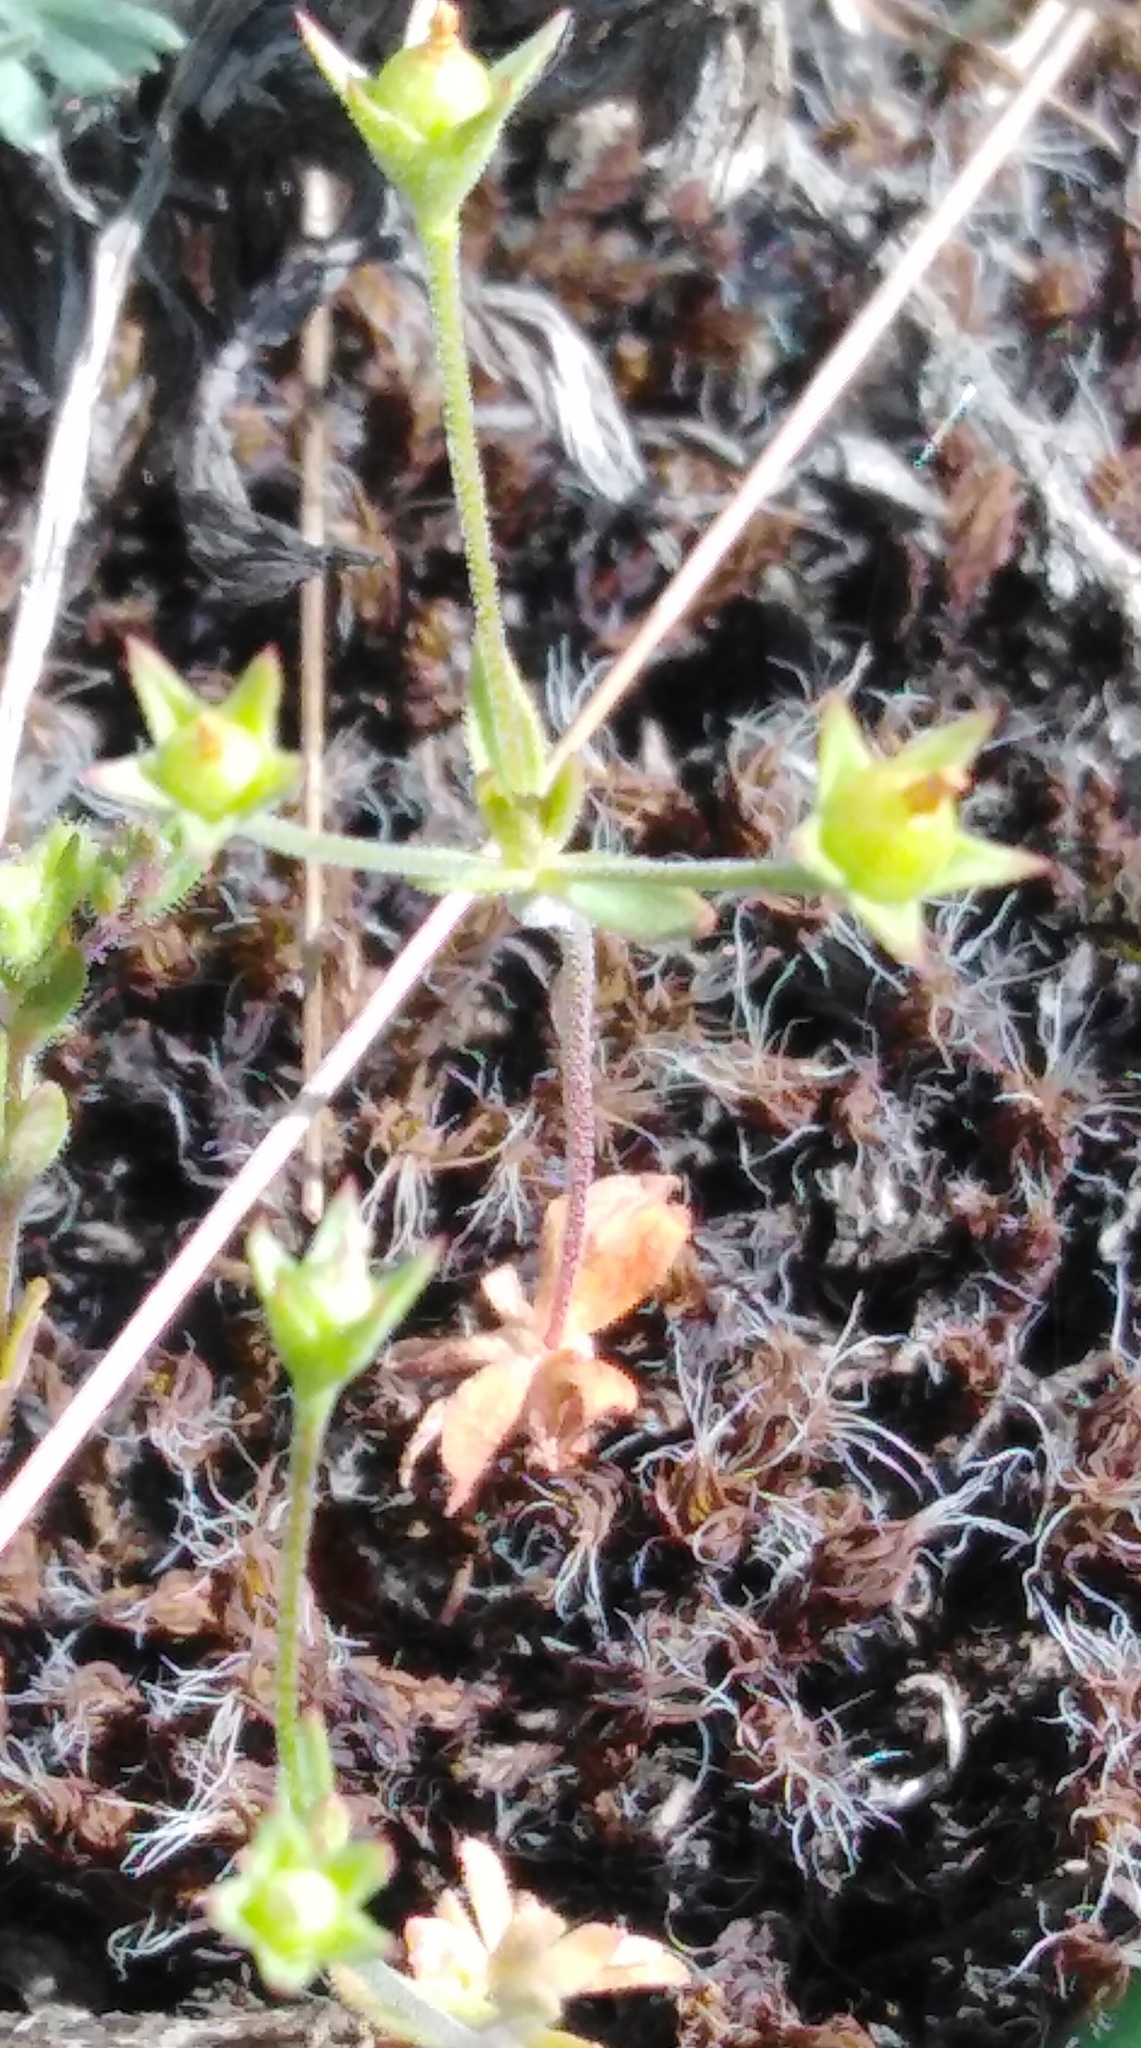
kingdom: Plantae
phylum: Tracheophyta
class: Magnoliopsida
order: Ericales
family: Primulaceae
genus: Androsace
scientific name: Androsace elongata
